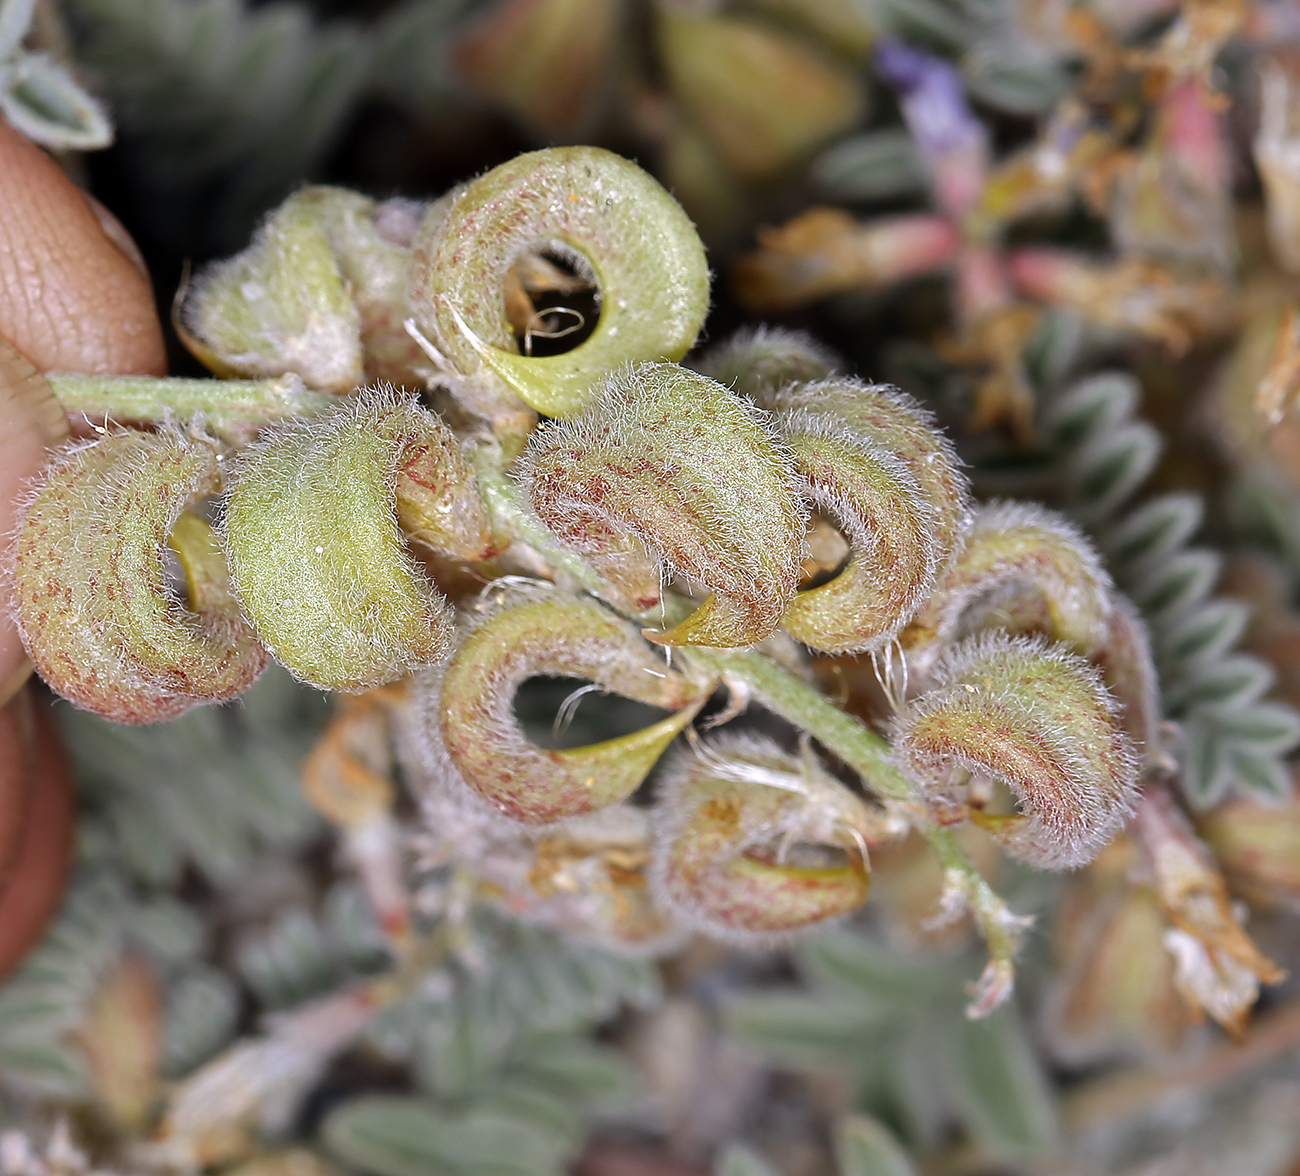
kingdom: Plantae
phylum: Tracheophyta
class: Magnoliopsida
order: Fabales
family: Fabaceae
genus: Astragalus
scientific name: Astragalus lentiginosus
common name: Freckled milkvetch
